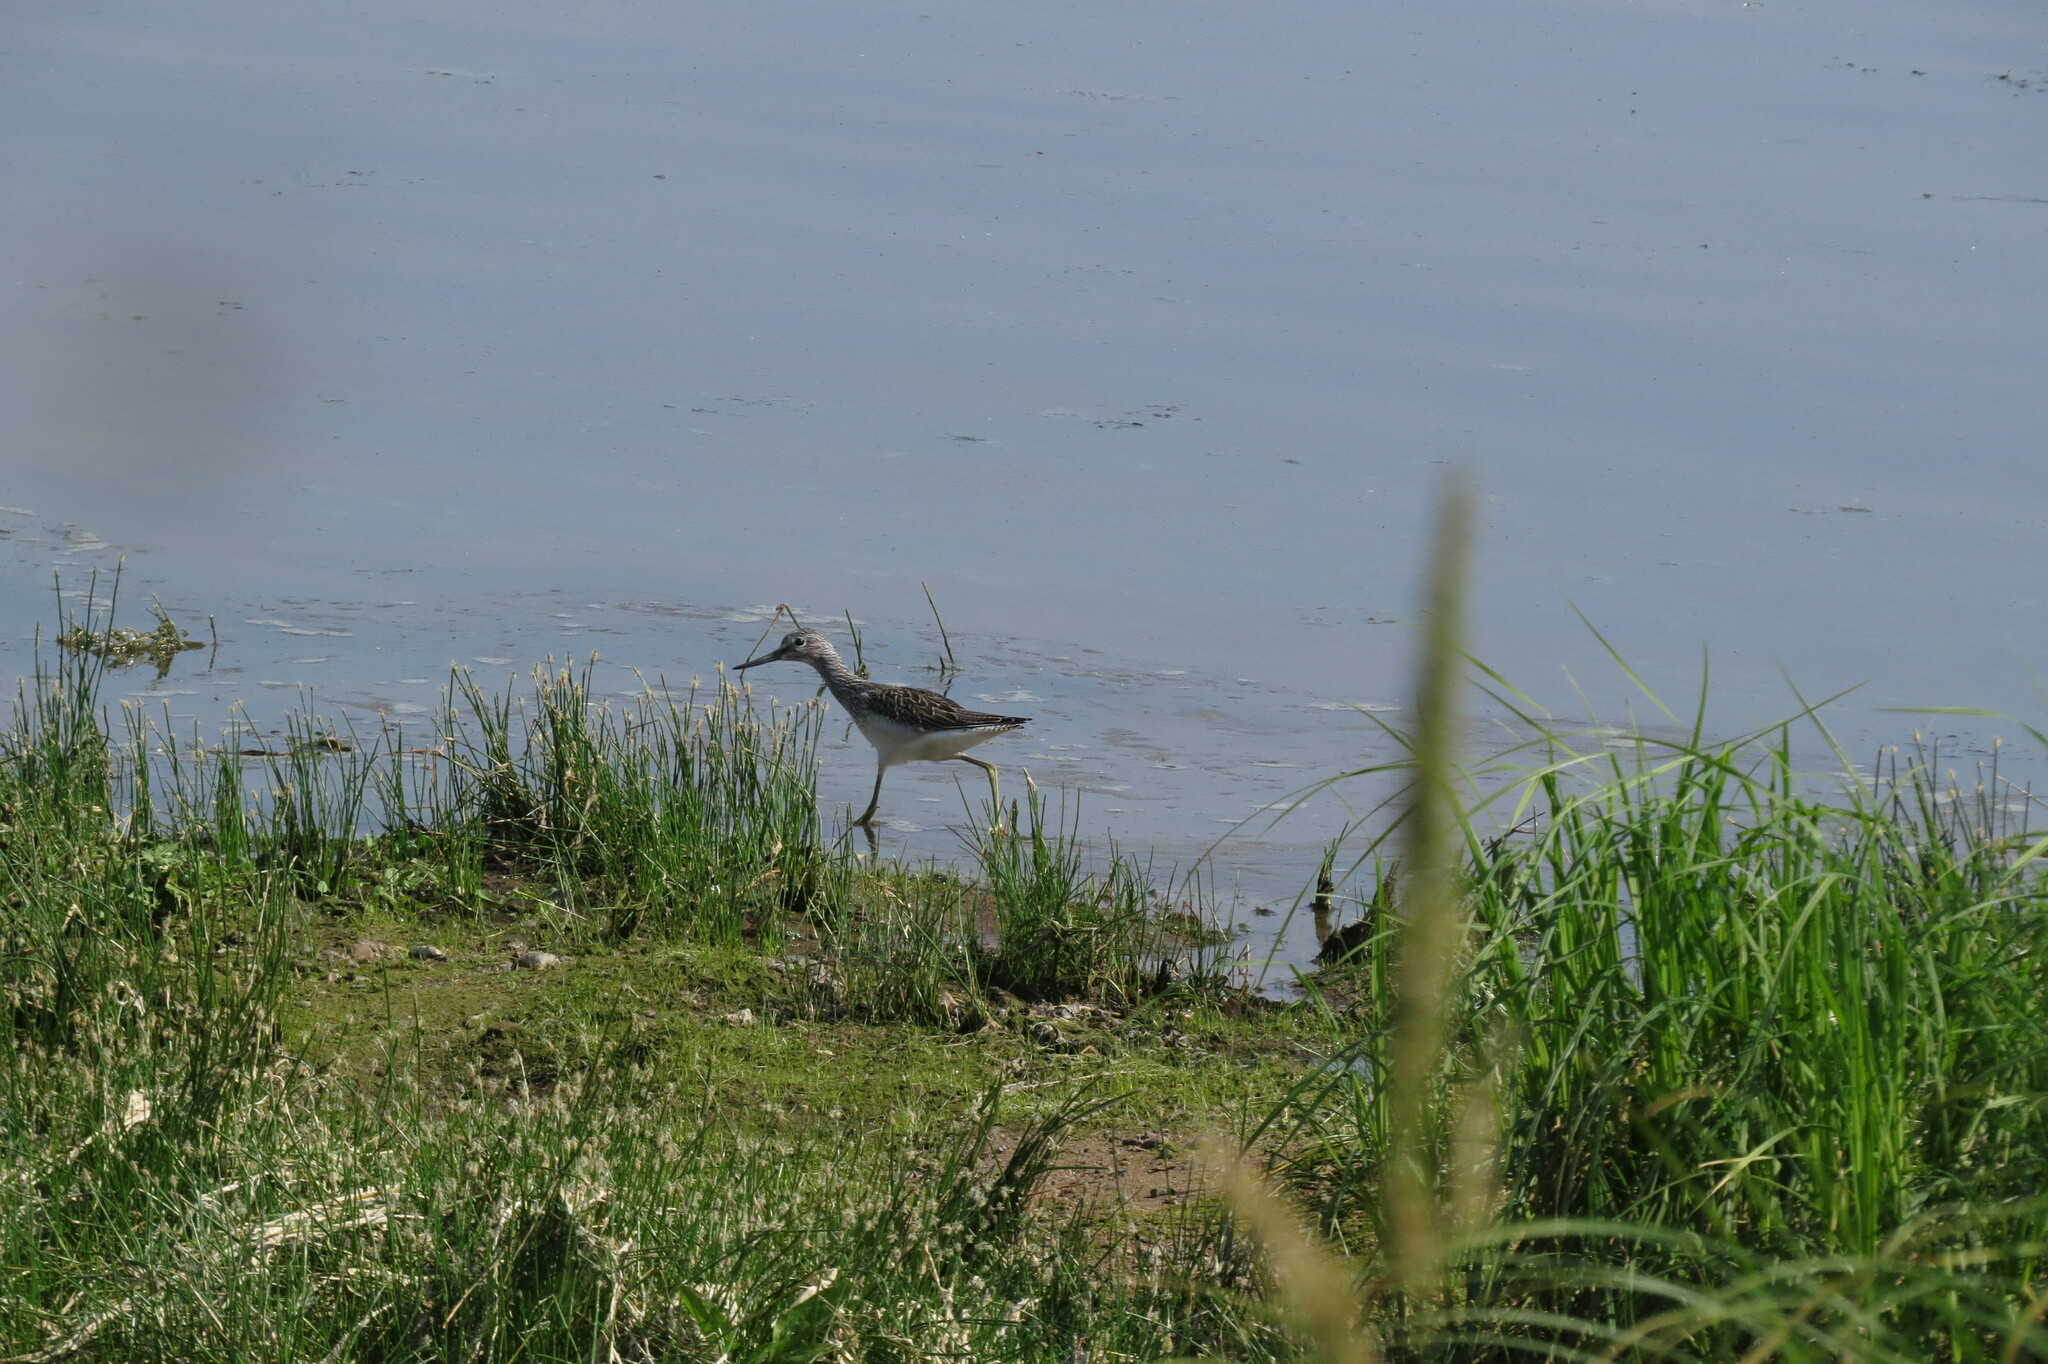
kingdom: Animalia
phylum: Chordata
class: Aves
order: Charadriiformes
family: Scolopacidae
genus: Tringa
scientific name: Tringa nebularia
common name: Common greenshank
